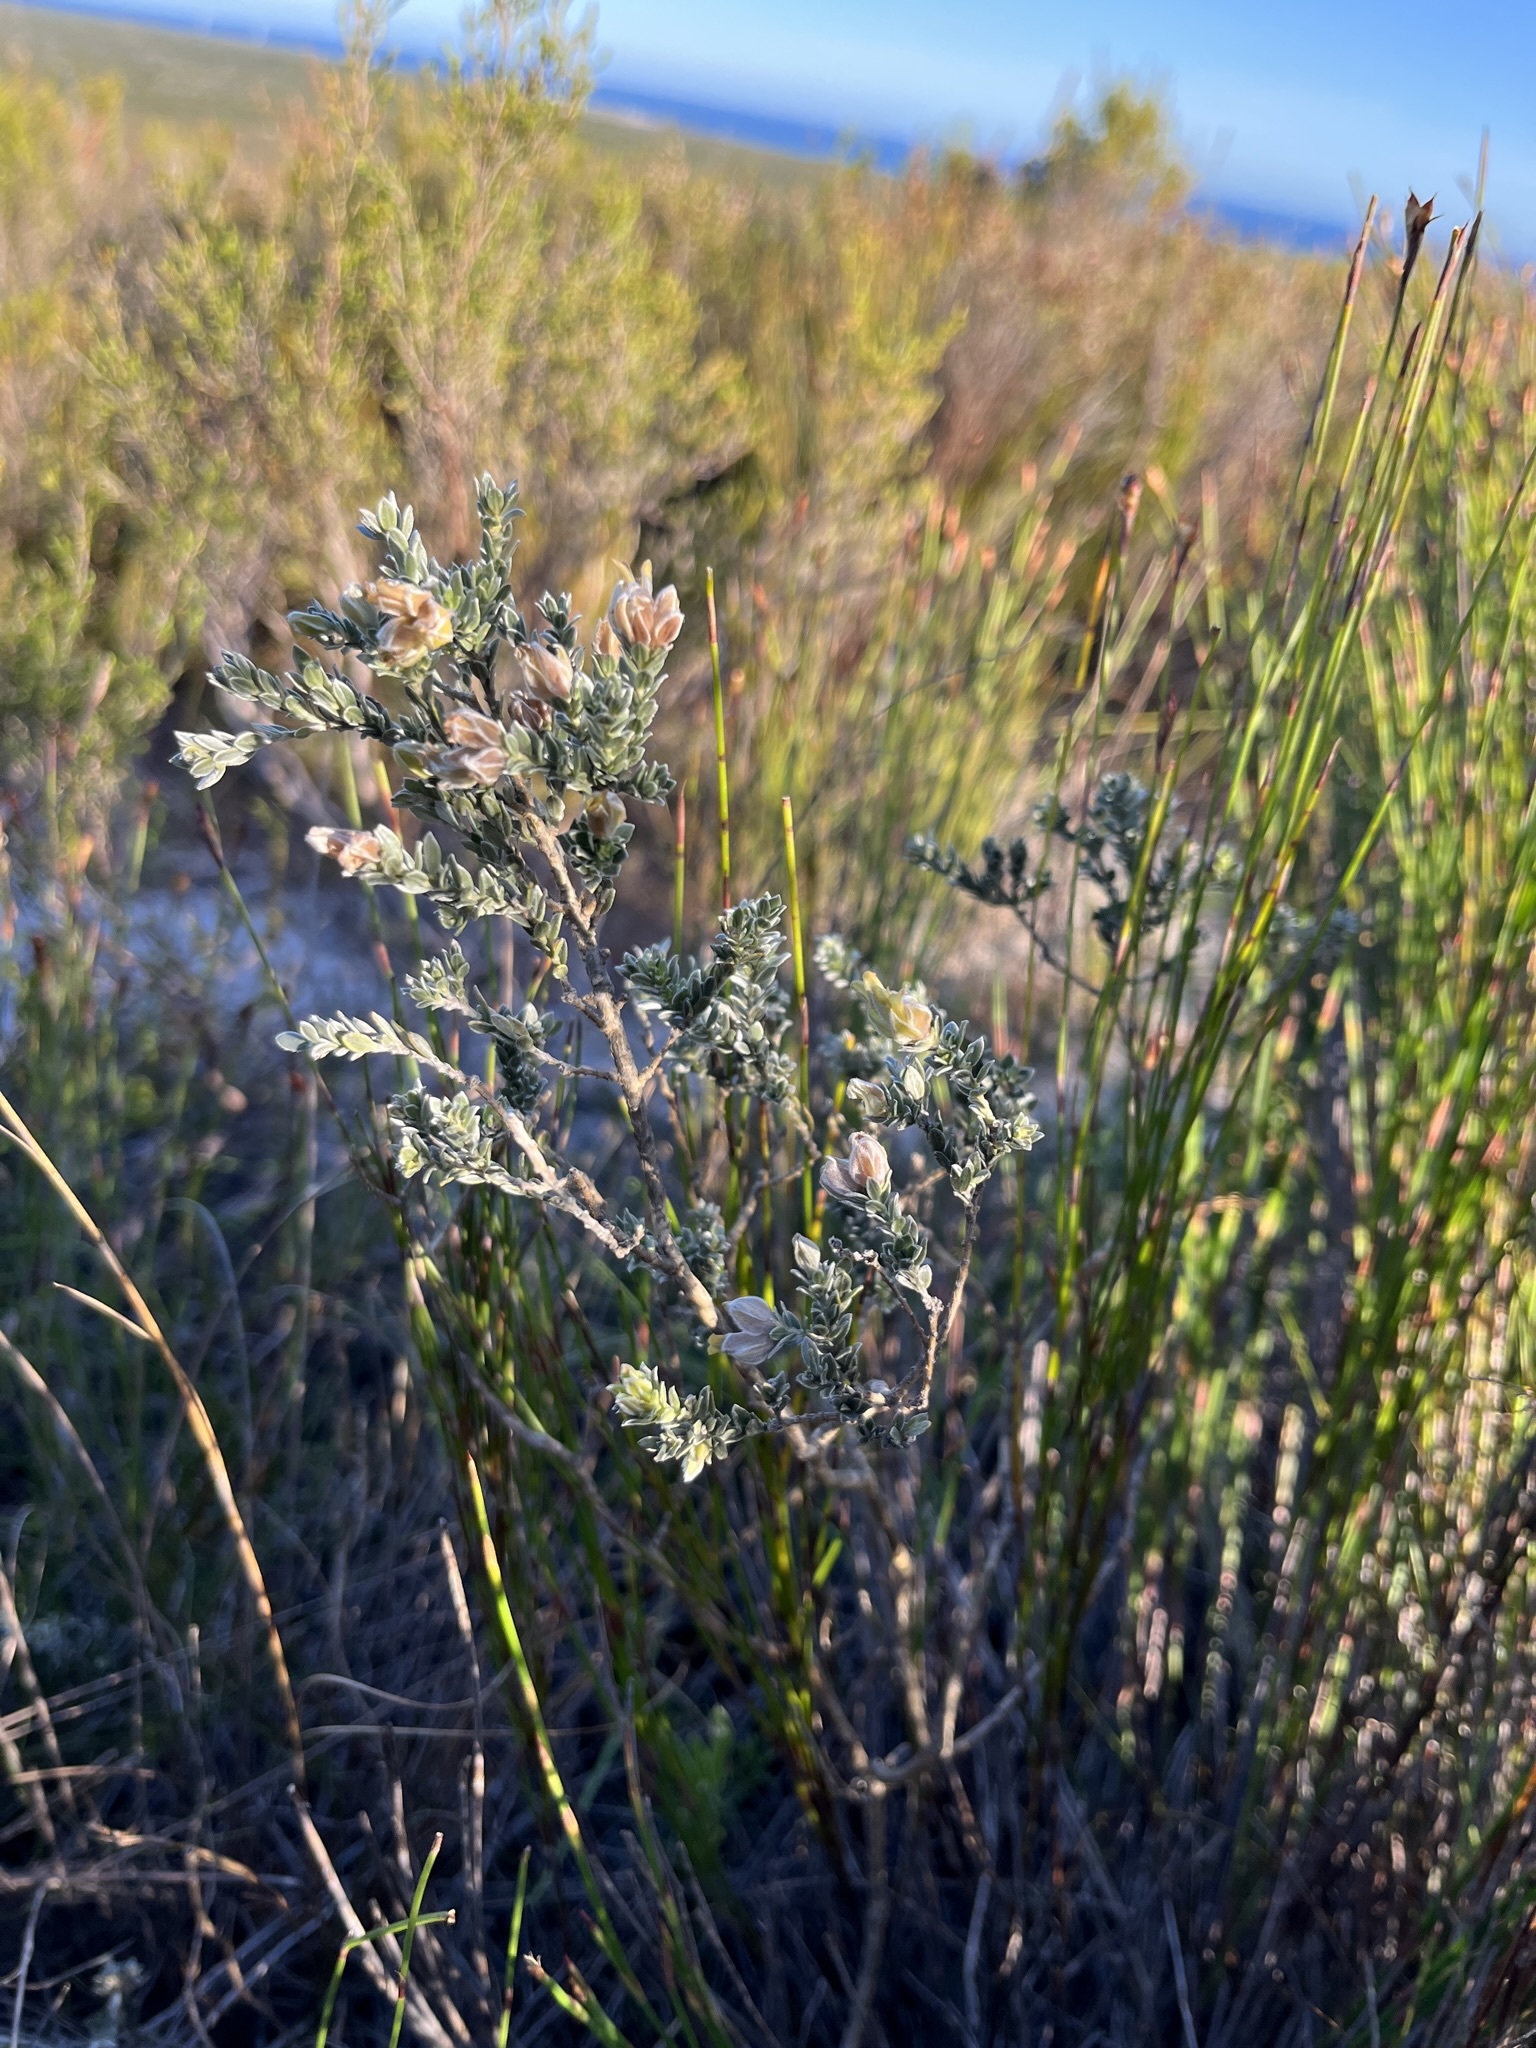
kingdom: Plantae
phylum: Tracheophyta
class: Magnoliopsida
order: Fabales
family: Fabaceae
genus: Amphithalea
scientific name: Amphithalea tomentosa
